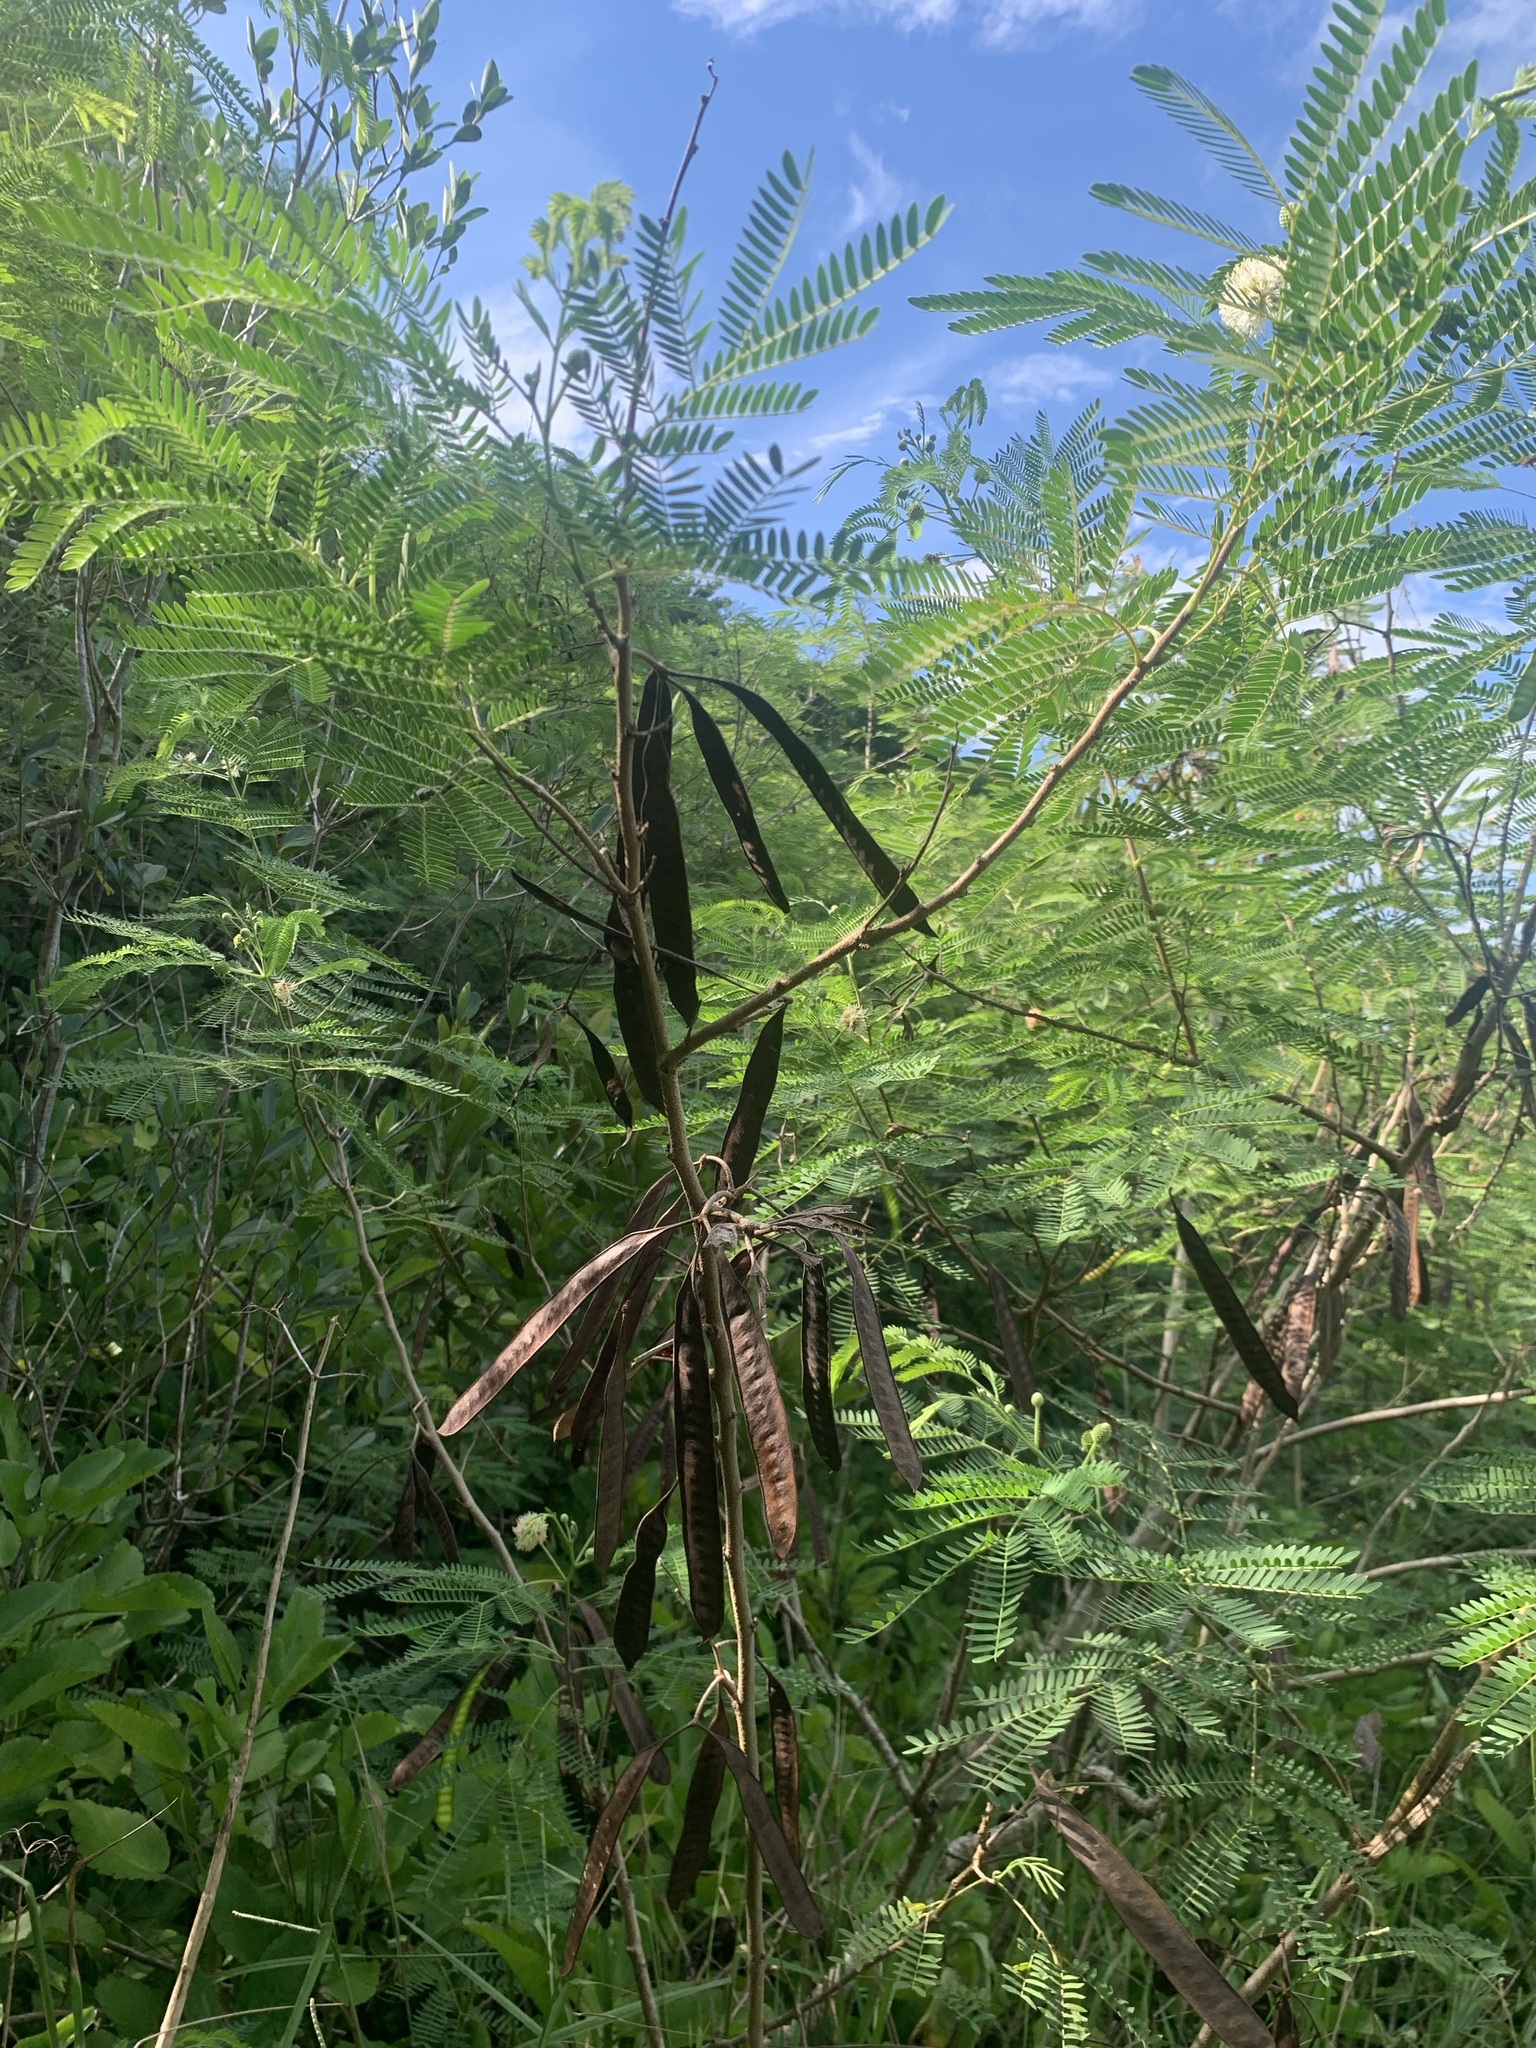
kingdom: Plantae
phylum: Tracheophyta
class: Magnoliopsida
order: Fabales
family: Fabaceae
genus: Leucaena
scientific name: Leucaena leucocephala
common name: White leadtree
